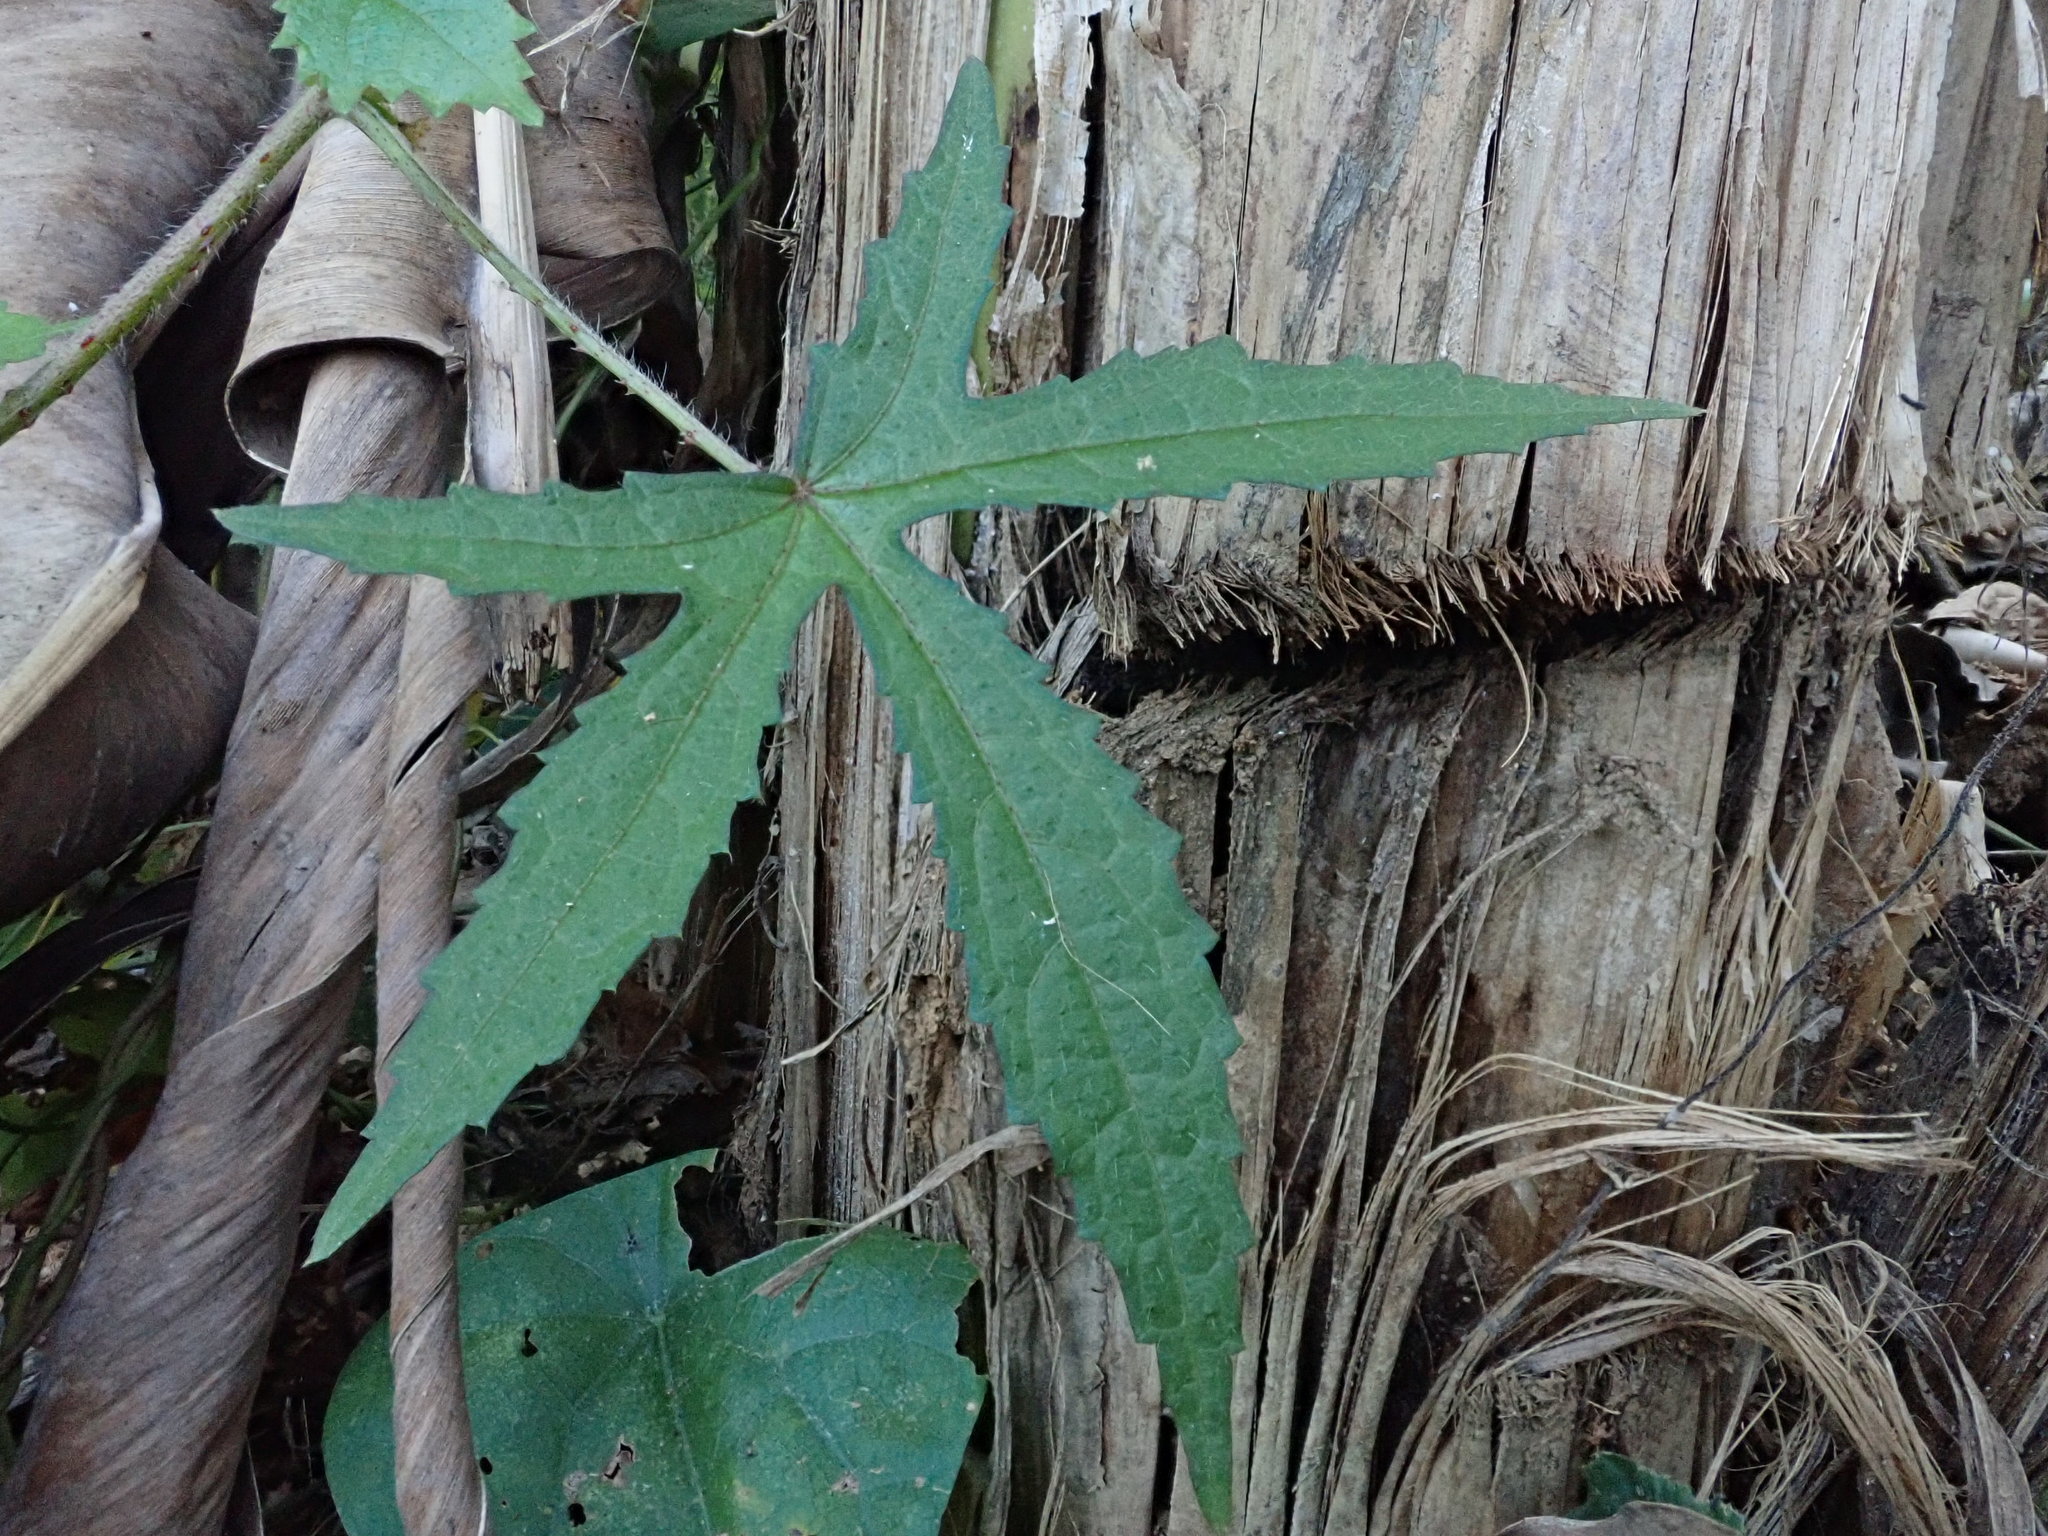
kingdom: Plantae
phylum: Tracheophyta
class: Magnoliopsida
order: Malvales
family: Malvaceae
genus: Hibiscus
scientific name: Hibiscus surattensis
